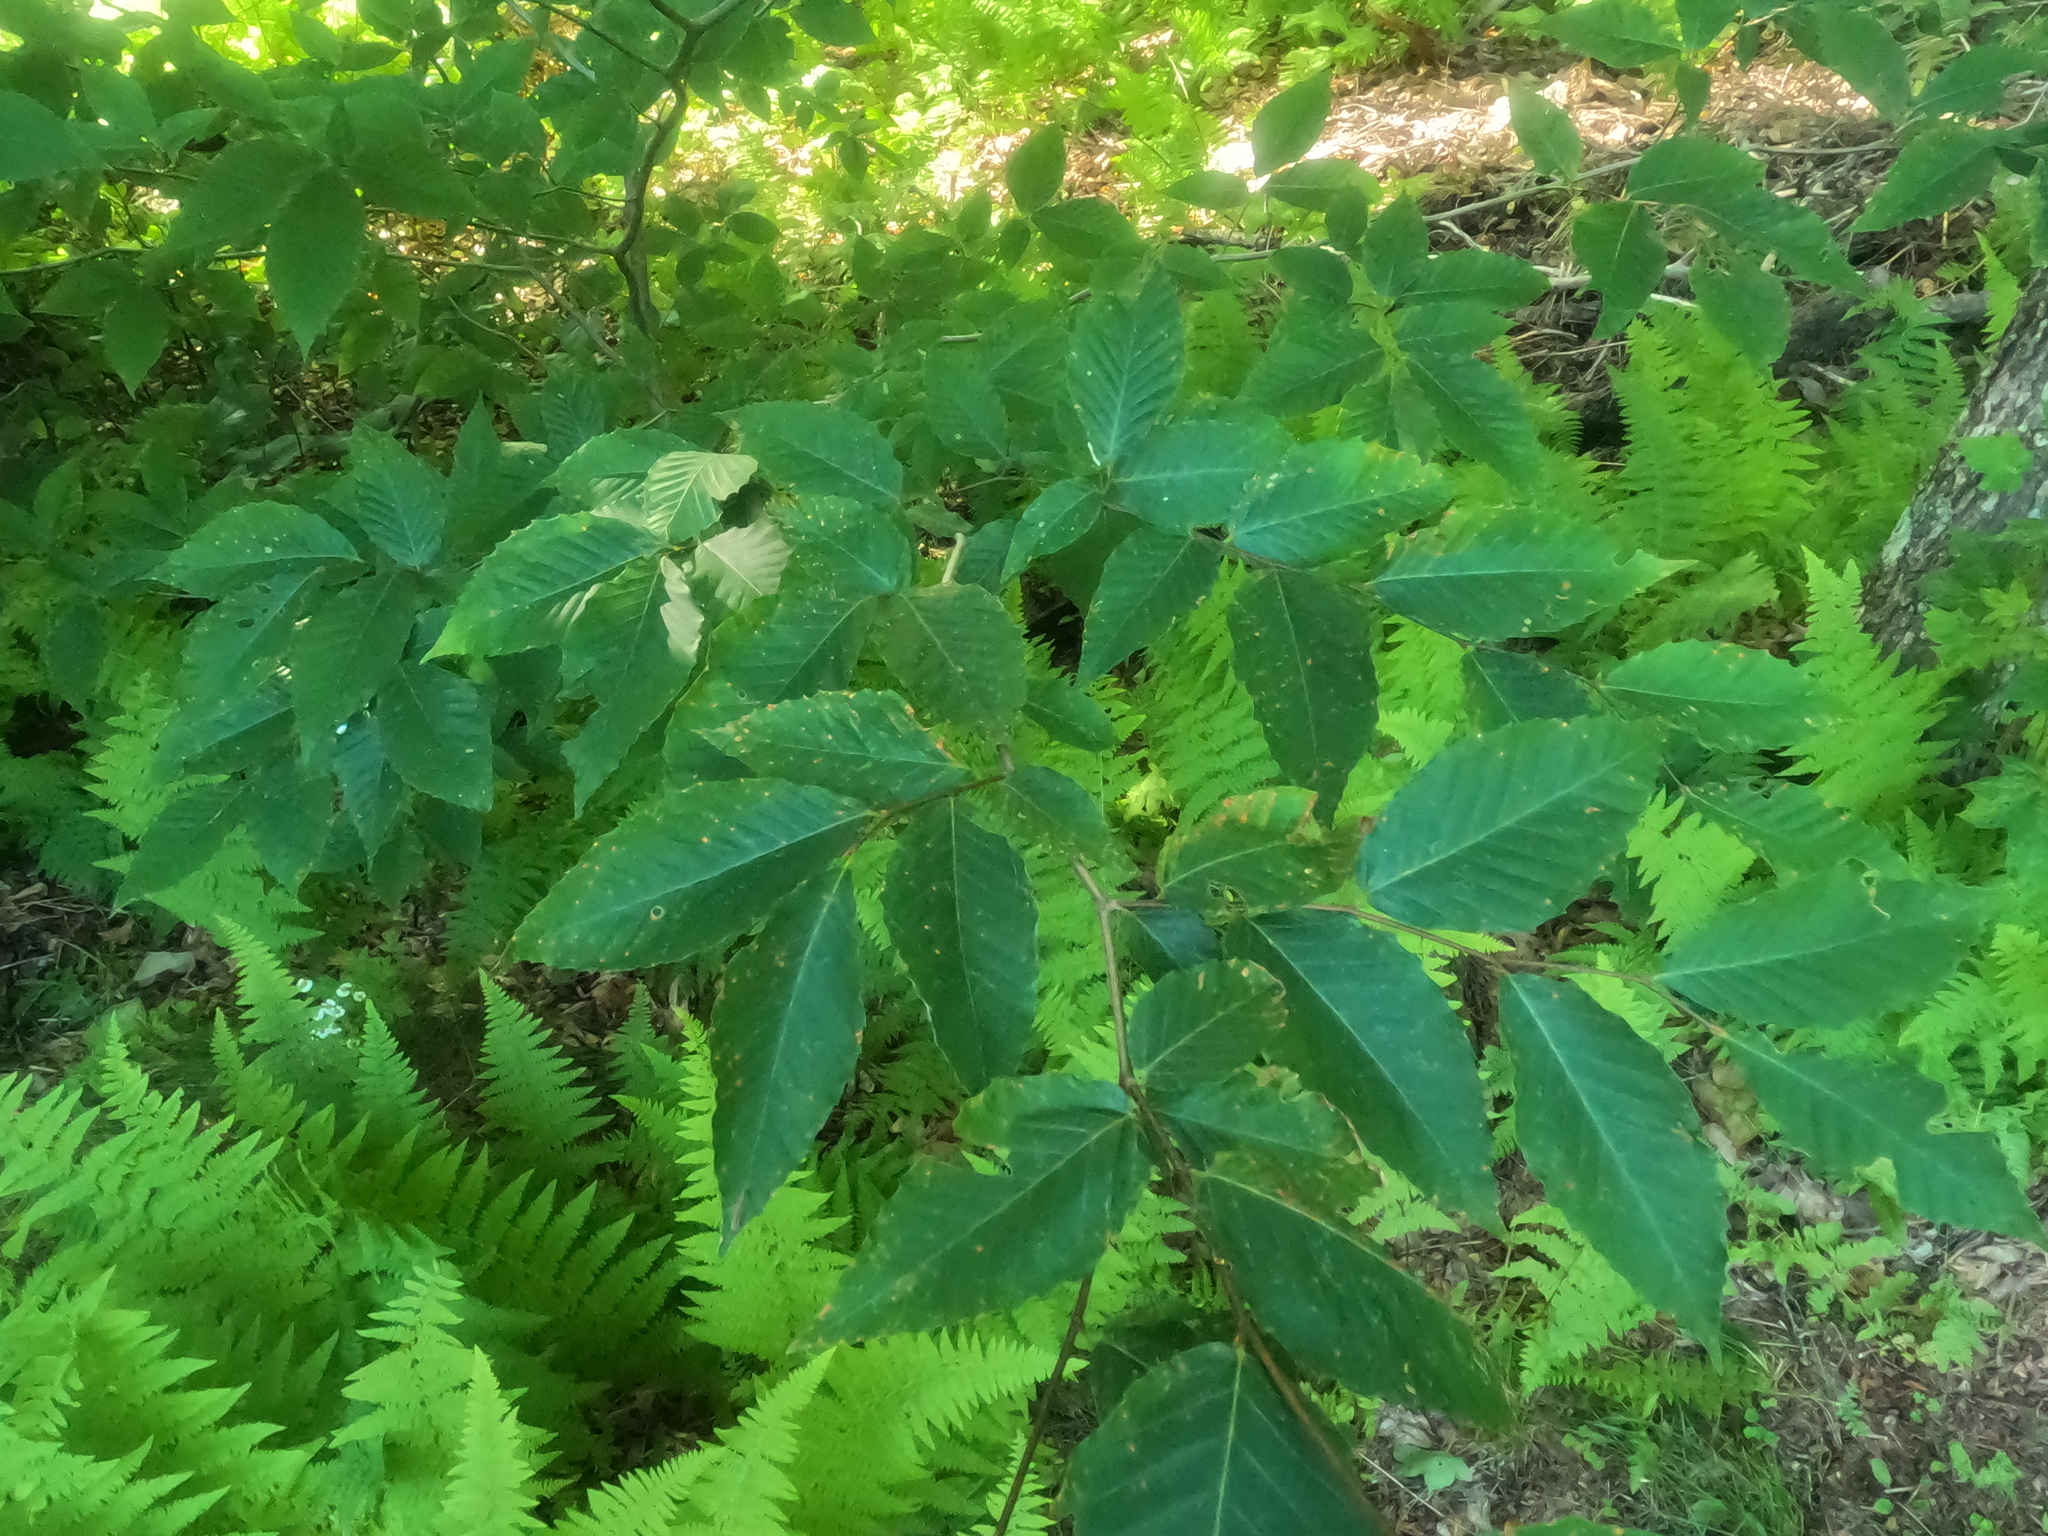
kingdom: Plantae
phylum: Tracheophyta
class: Magnoliopsida
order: Fagales
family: Fagaceae
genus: Fagus
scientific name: Fagus grandifolia
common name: American beech
